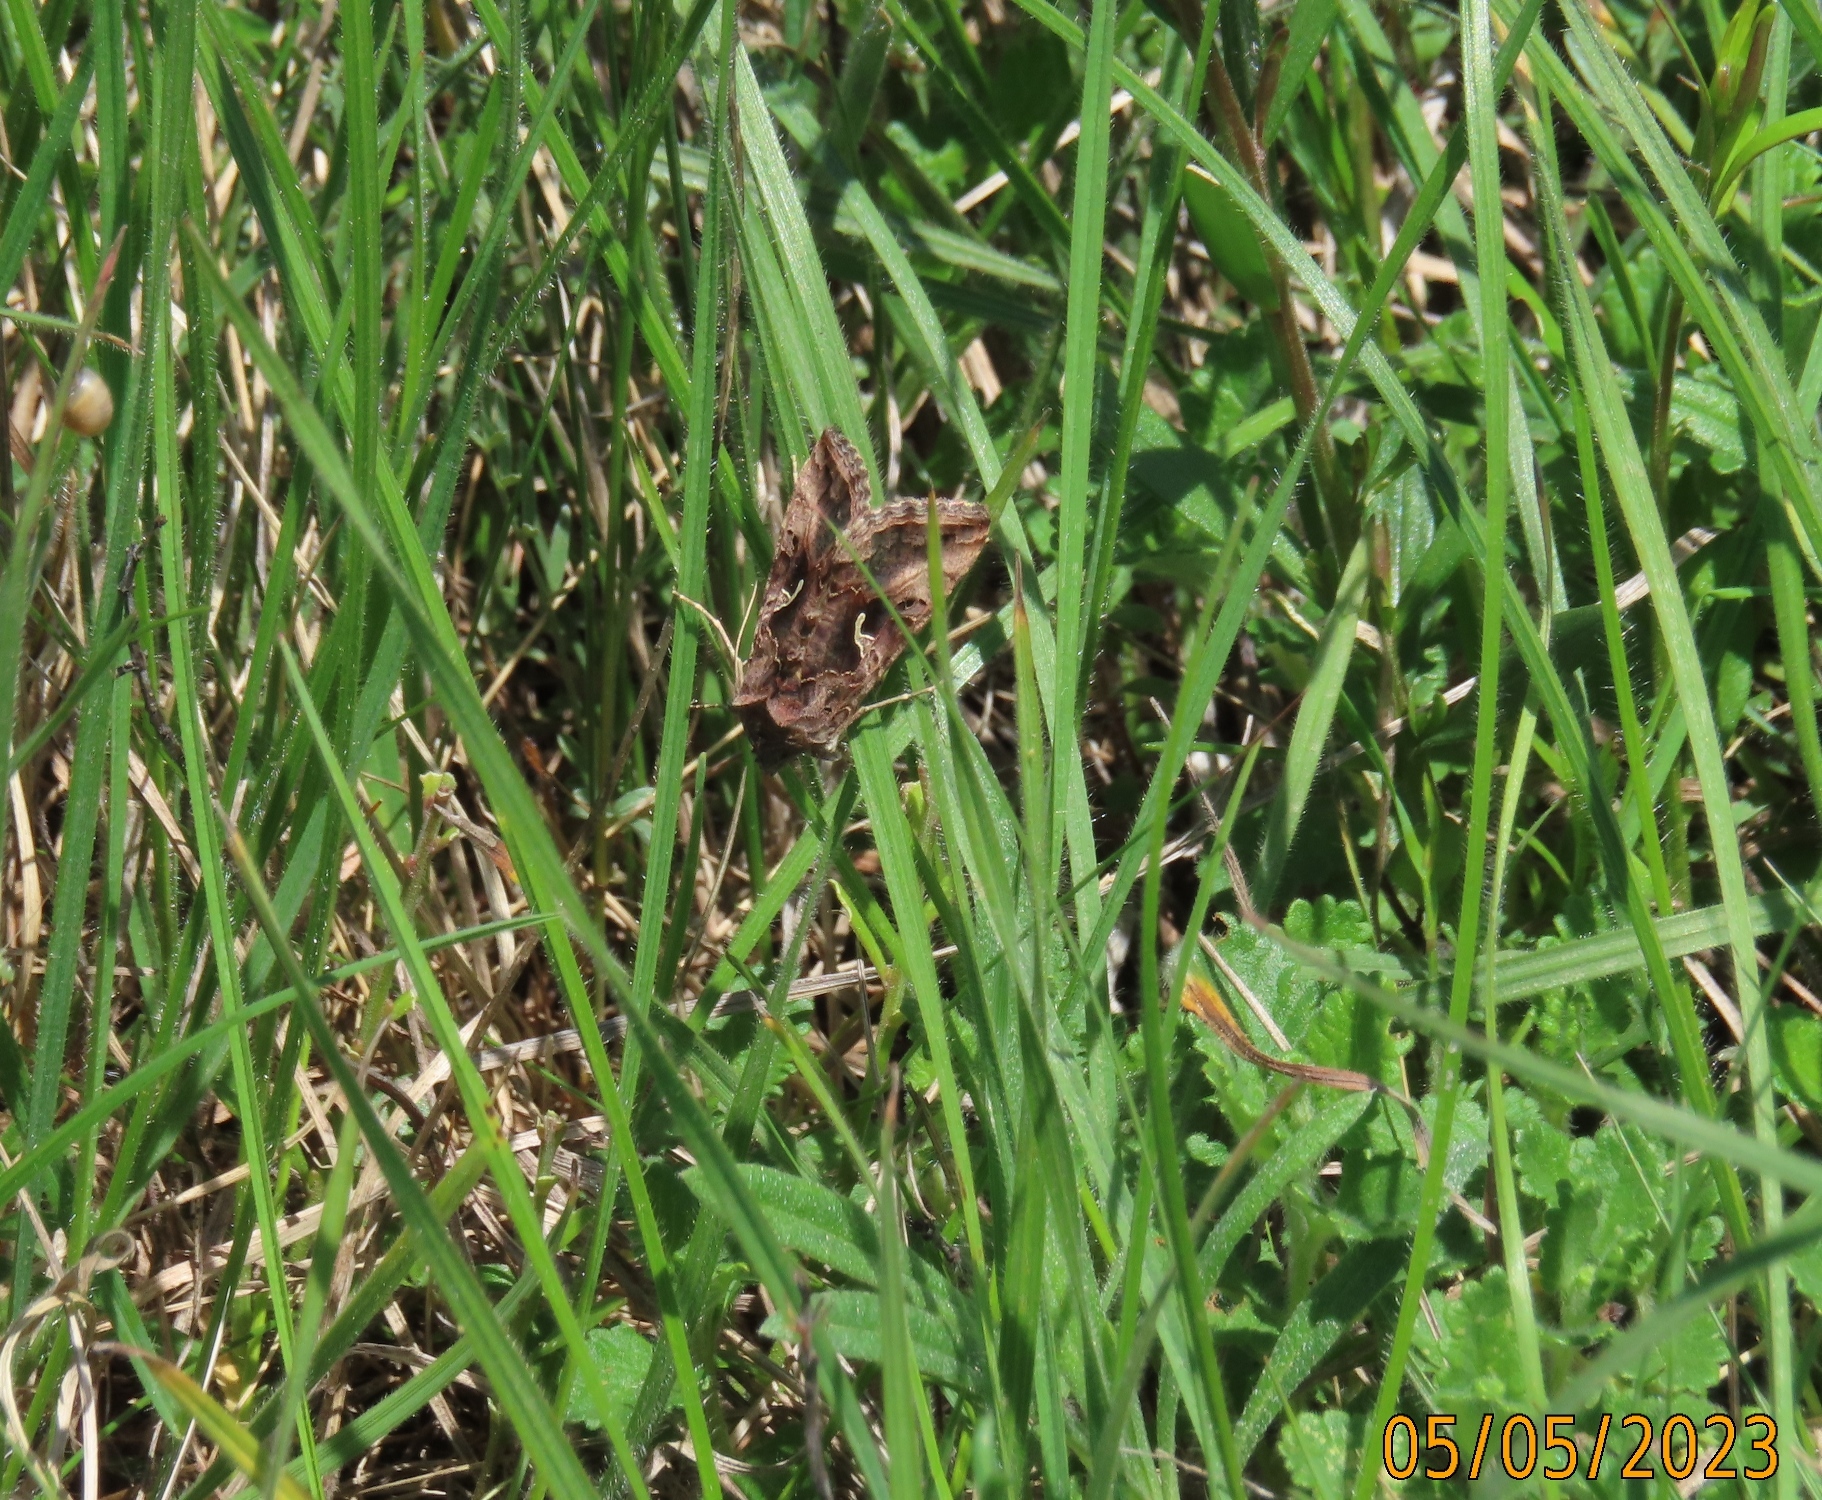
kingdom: Animalia
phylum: Arthropoda
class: Insecta
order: Lepidoptera
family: Noctuidae
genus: Autographa
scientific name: Autographa gamma
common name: Silver y
